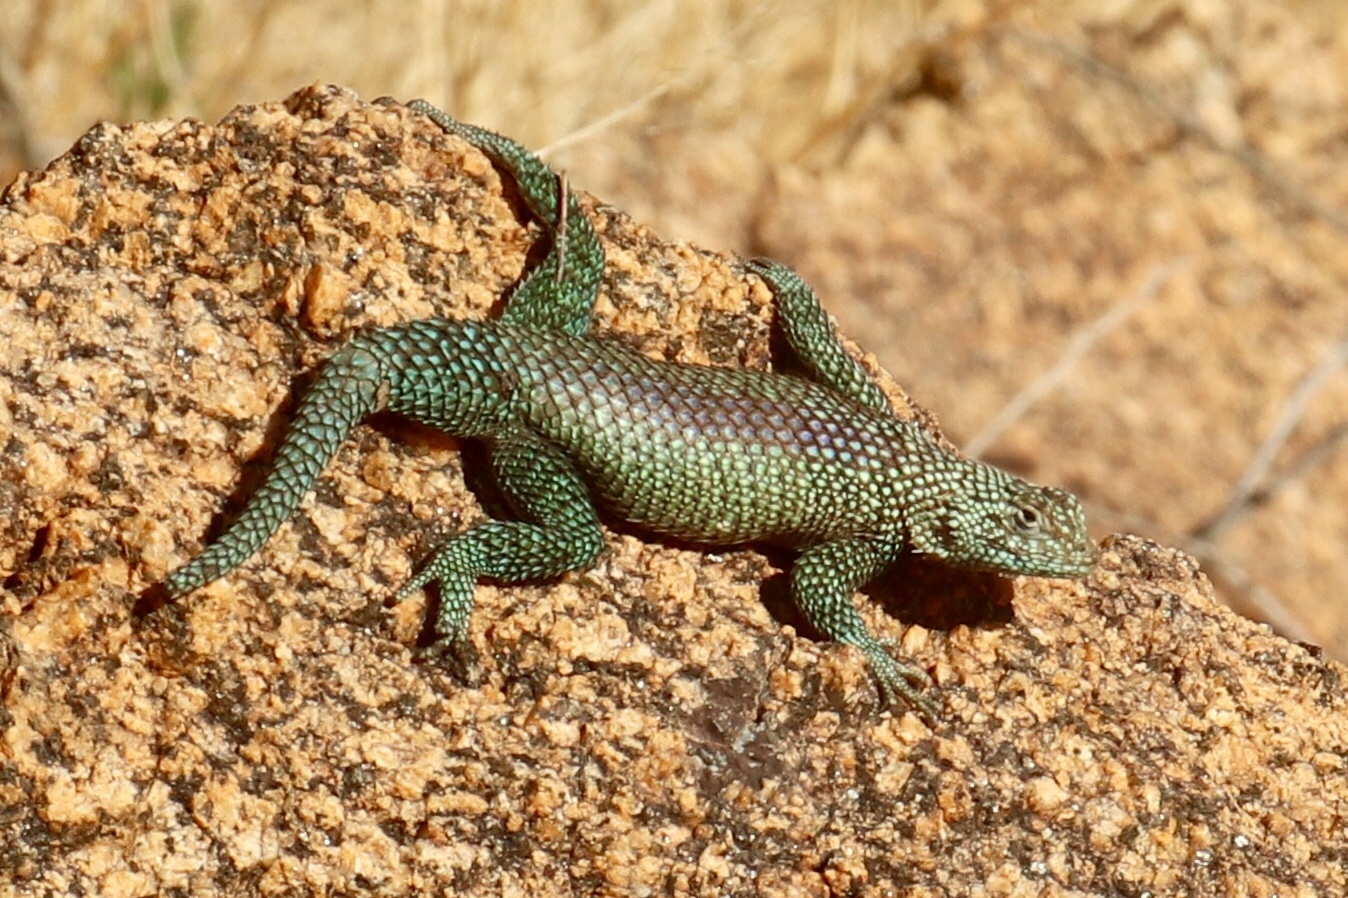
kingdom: Animalia
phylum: Chordata
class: Squamata
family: Phrynosomatidae
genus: Sceloporus
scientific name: Sceloporus orcutti
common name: Granite spiny lizard
